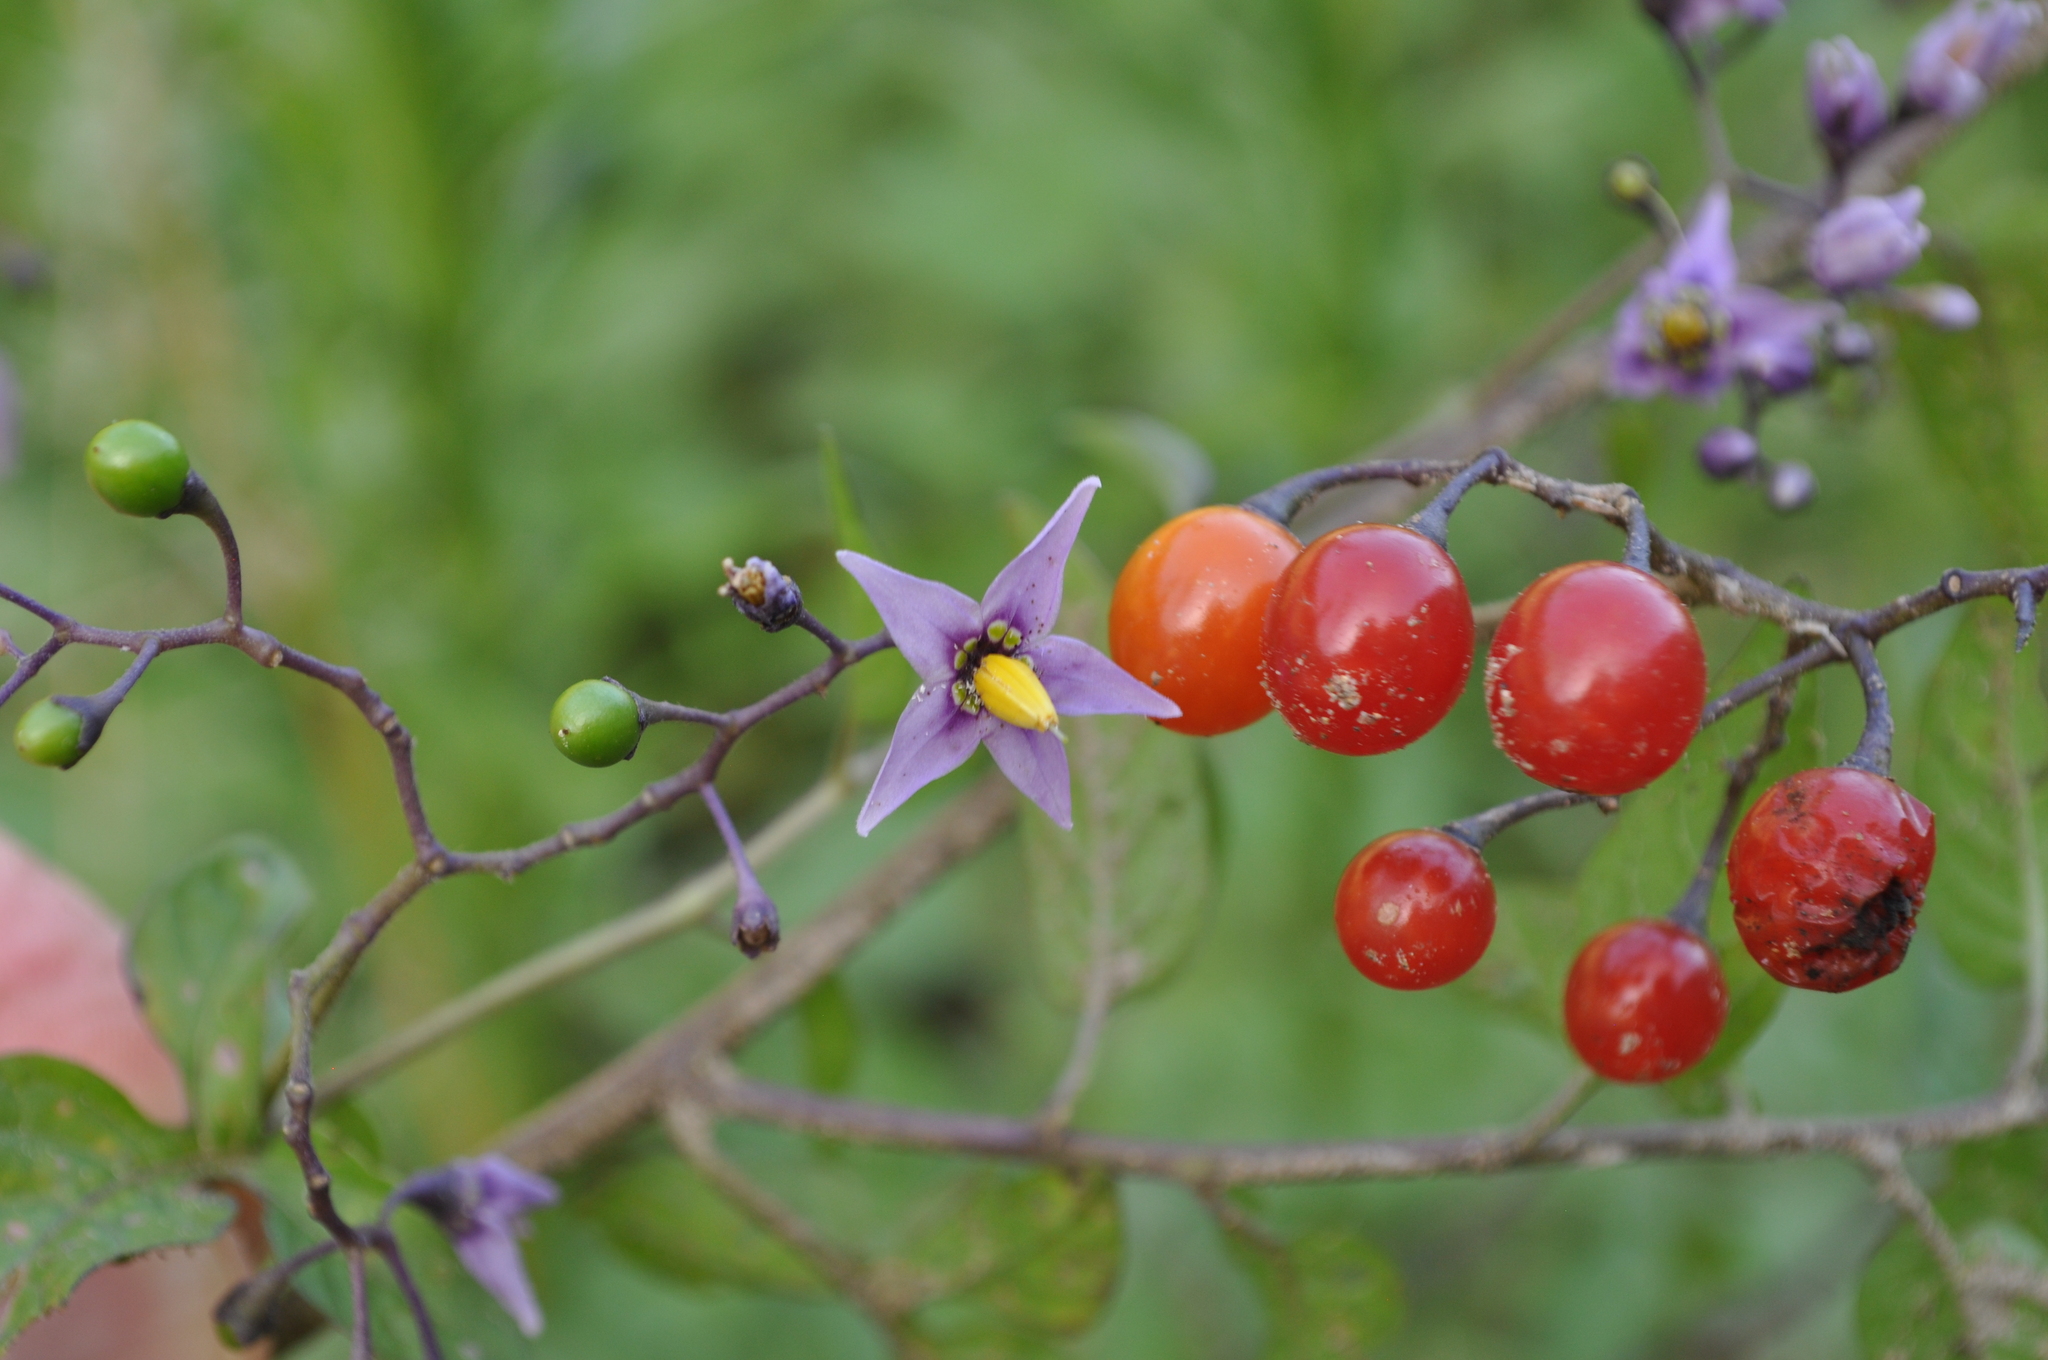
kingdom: Plantae
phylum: Tracheophyta
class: Magnoliopsida
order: Solanales
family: Solanaceae
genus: Solanum
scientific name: Solanum dulcamara
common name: Climbing nightshade
